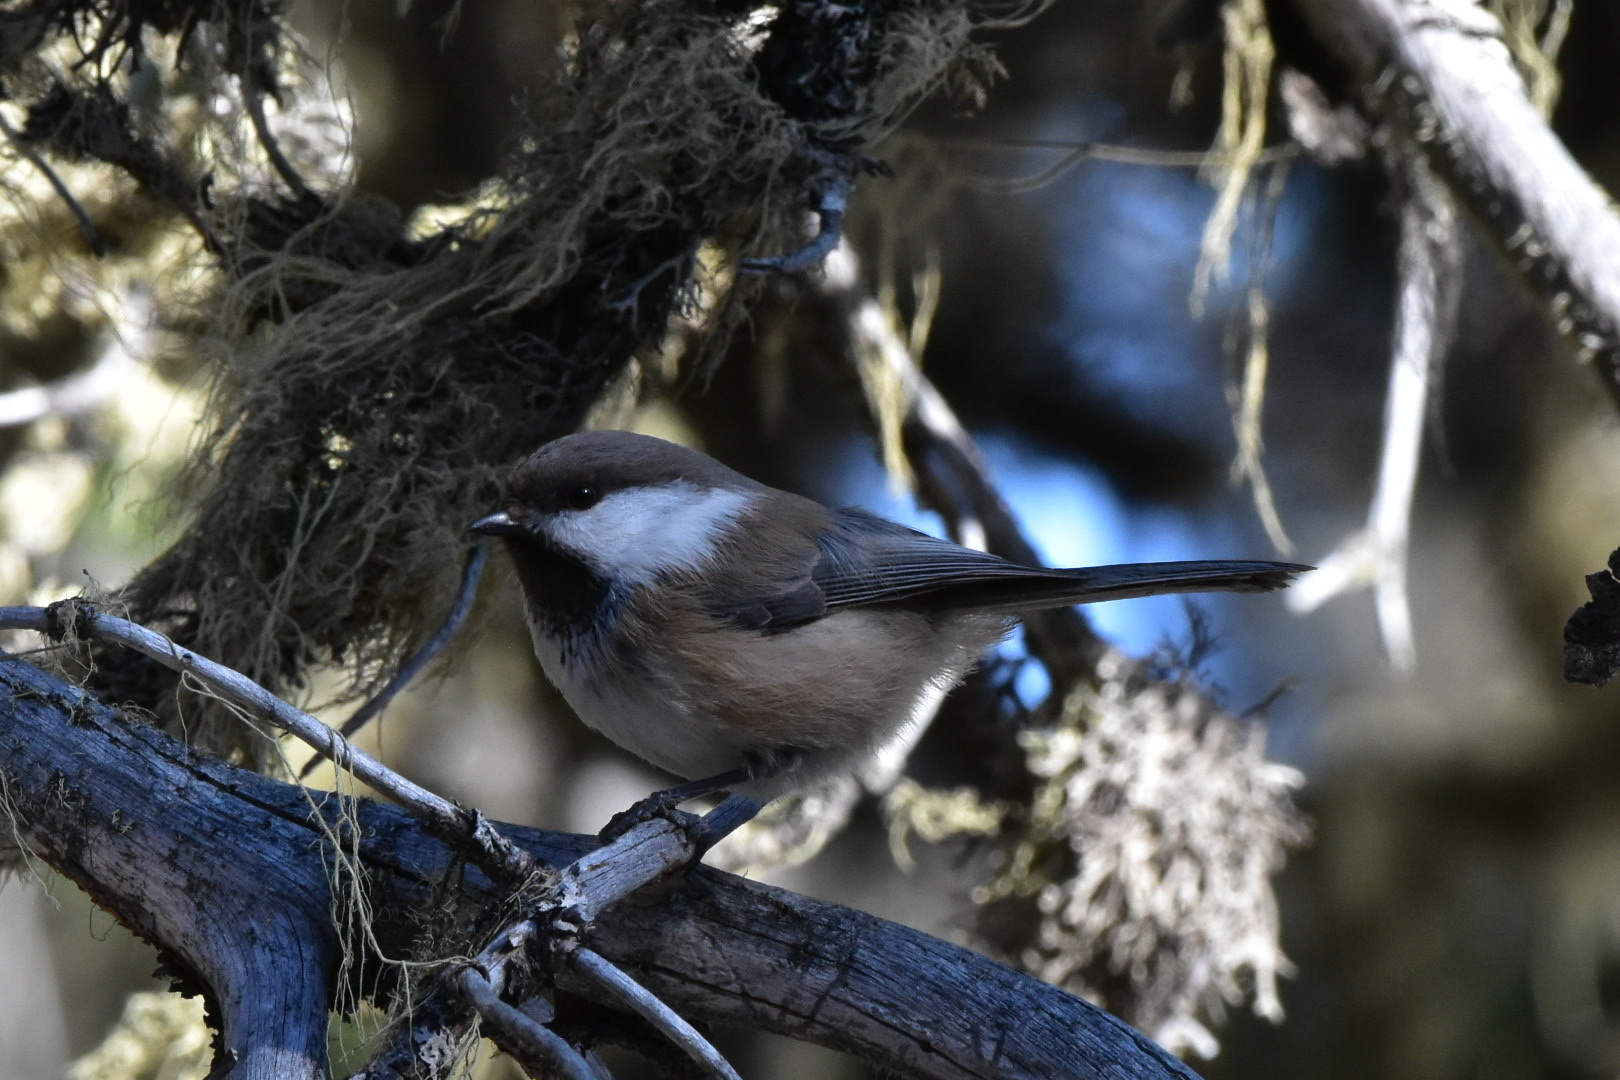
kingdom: Animalia
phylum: Chordata
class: Aves
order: Passeriformes
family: Paridae
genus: Poecile
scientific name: Poecile cinctus
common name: Gray-headed chickadee
